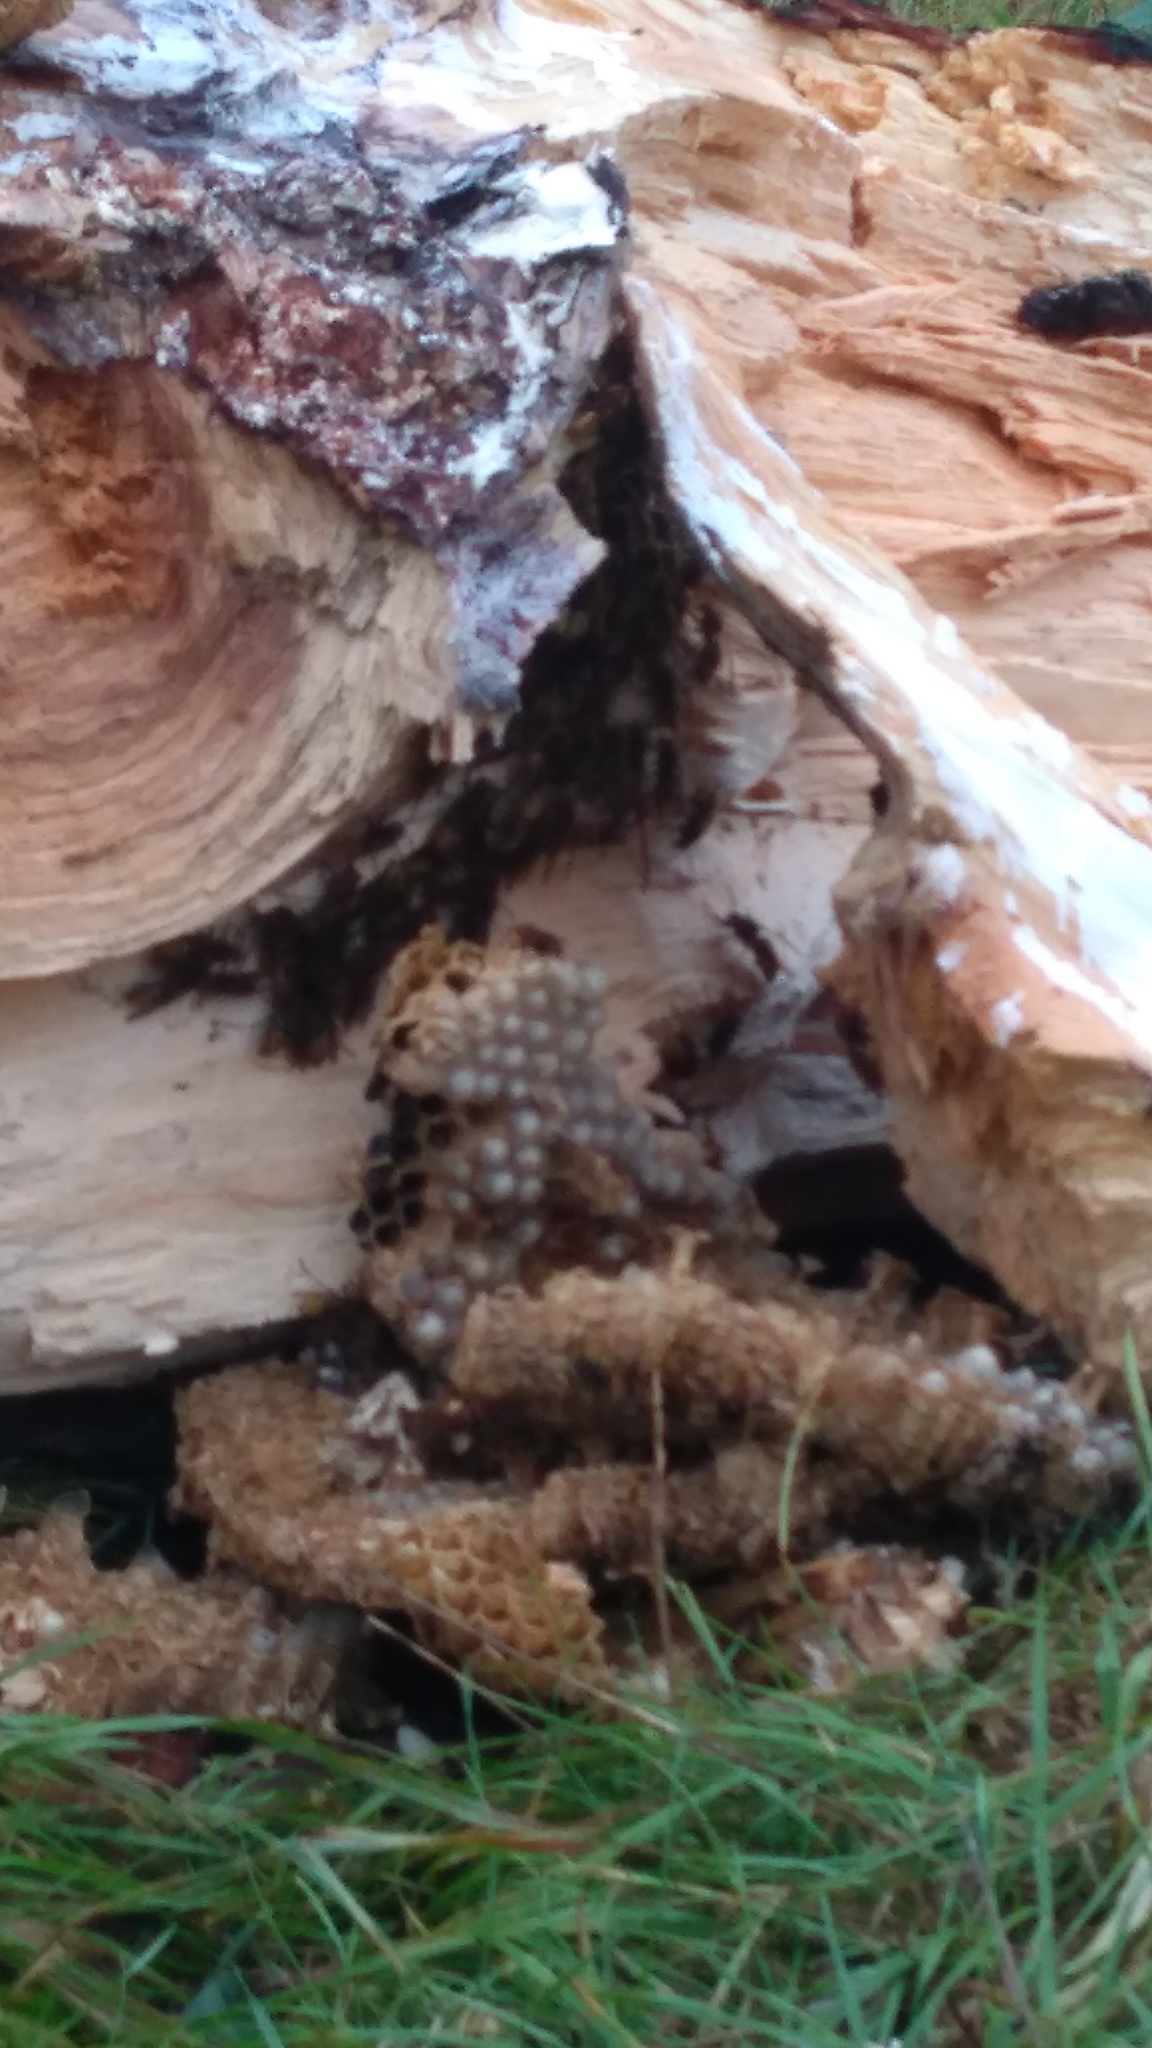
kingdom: Animalia
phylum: Arthropoda
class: Insecta
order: Hymenoptera
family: Vespidae
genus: Vespa
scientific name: Vespa crabro
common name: Hornet
